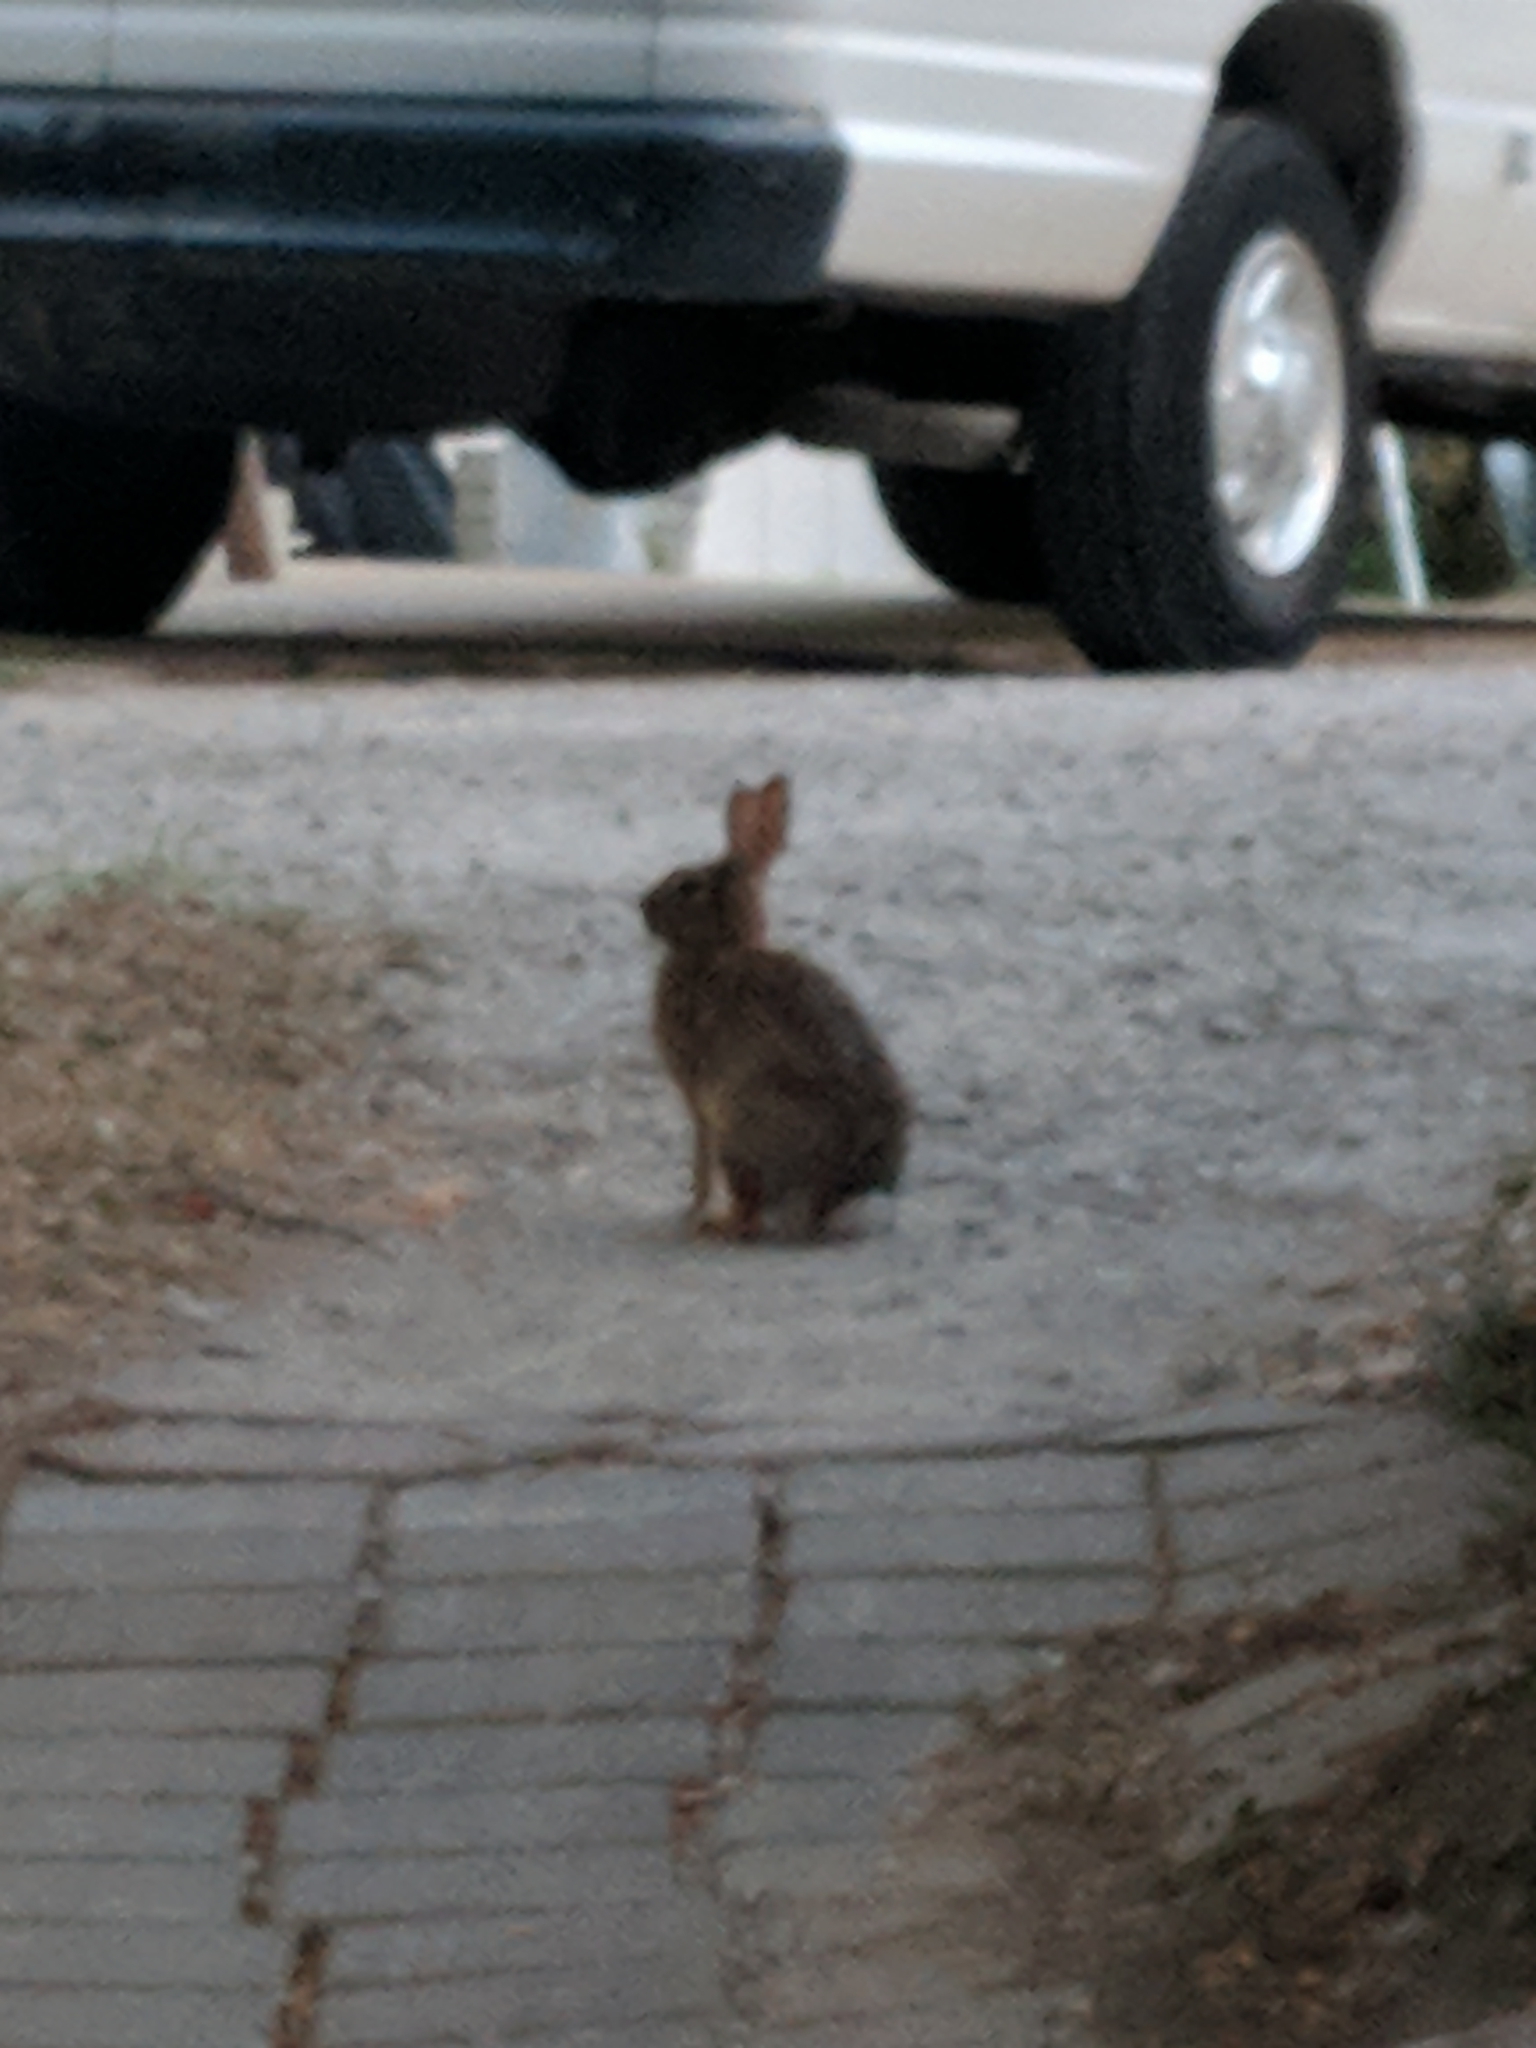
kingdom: Animalia
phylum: Chordata
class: Mammalia
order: Lagomorpha
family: Leporidae
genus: Sylvilagus
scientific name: Sylvilagus floridanus
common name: Eastern cottontail
